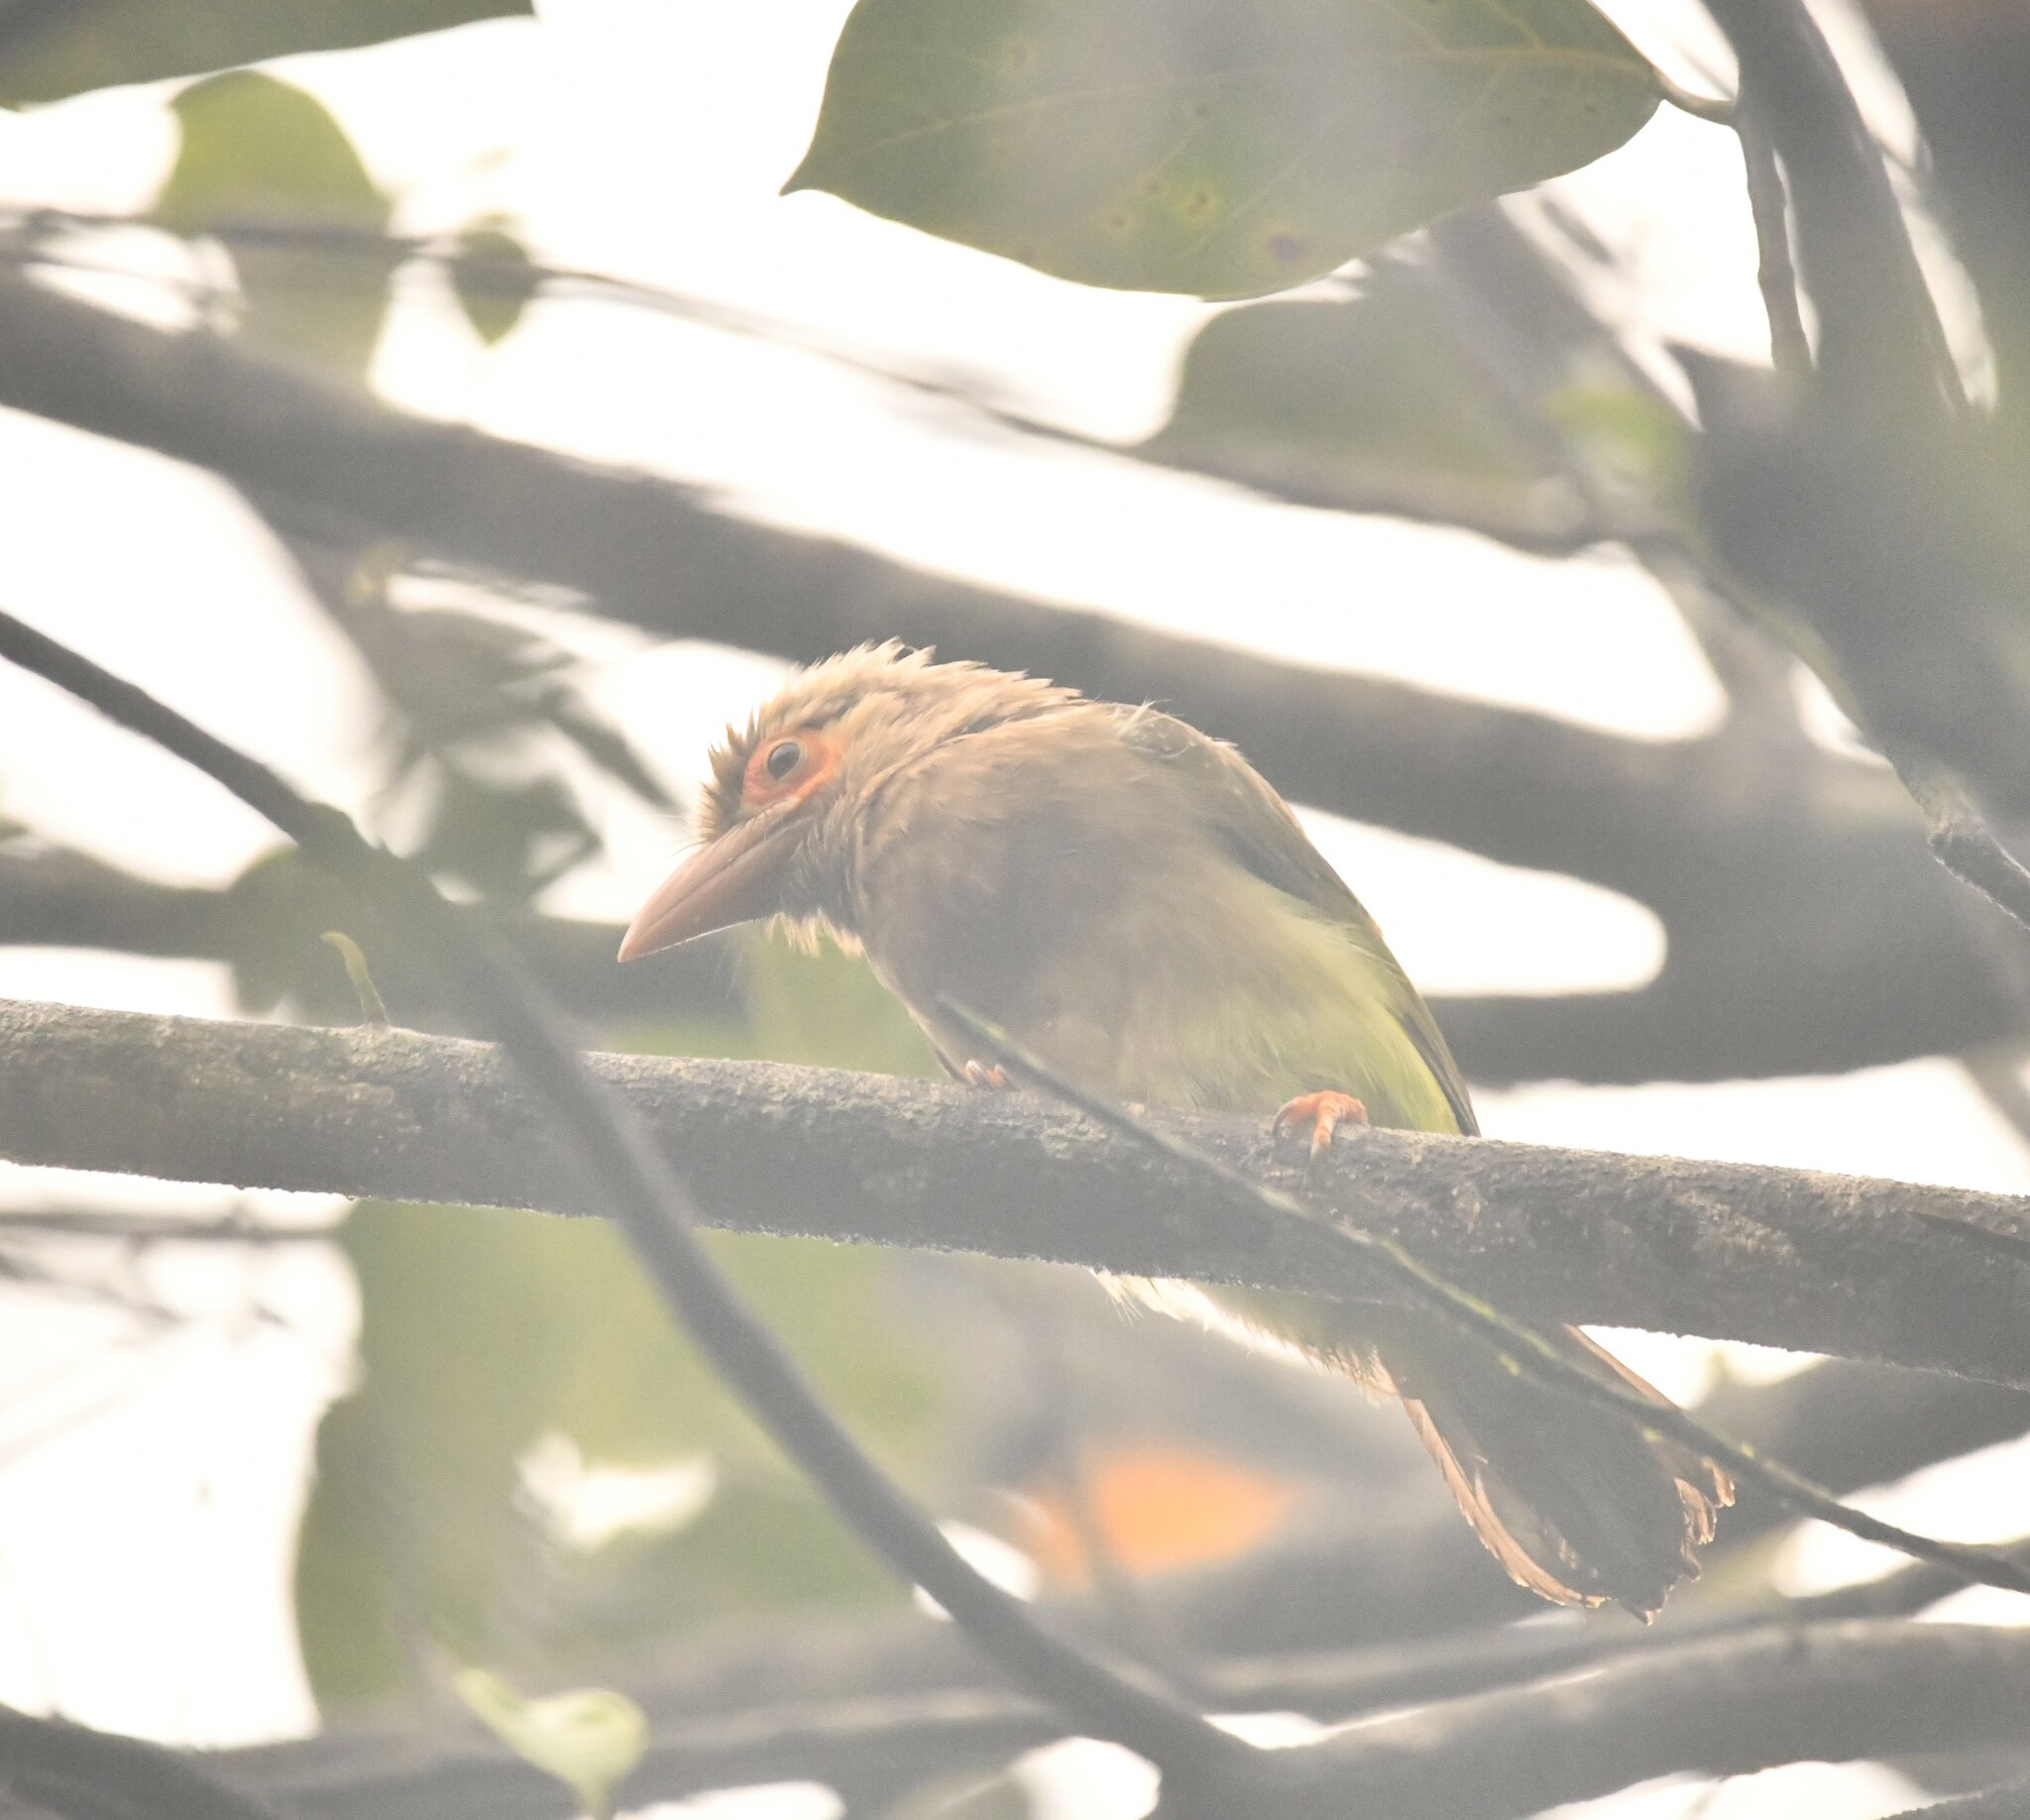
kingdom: Animalia
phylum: Chordata
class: Aves
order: Piciformes
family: Megalaimidae
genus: Psilopogon
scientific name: Psilopogon zeylanicus
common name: Brown-headed barbet
